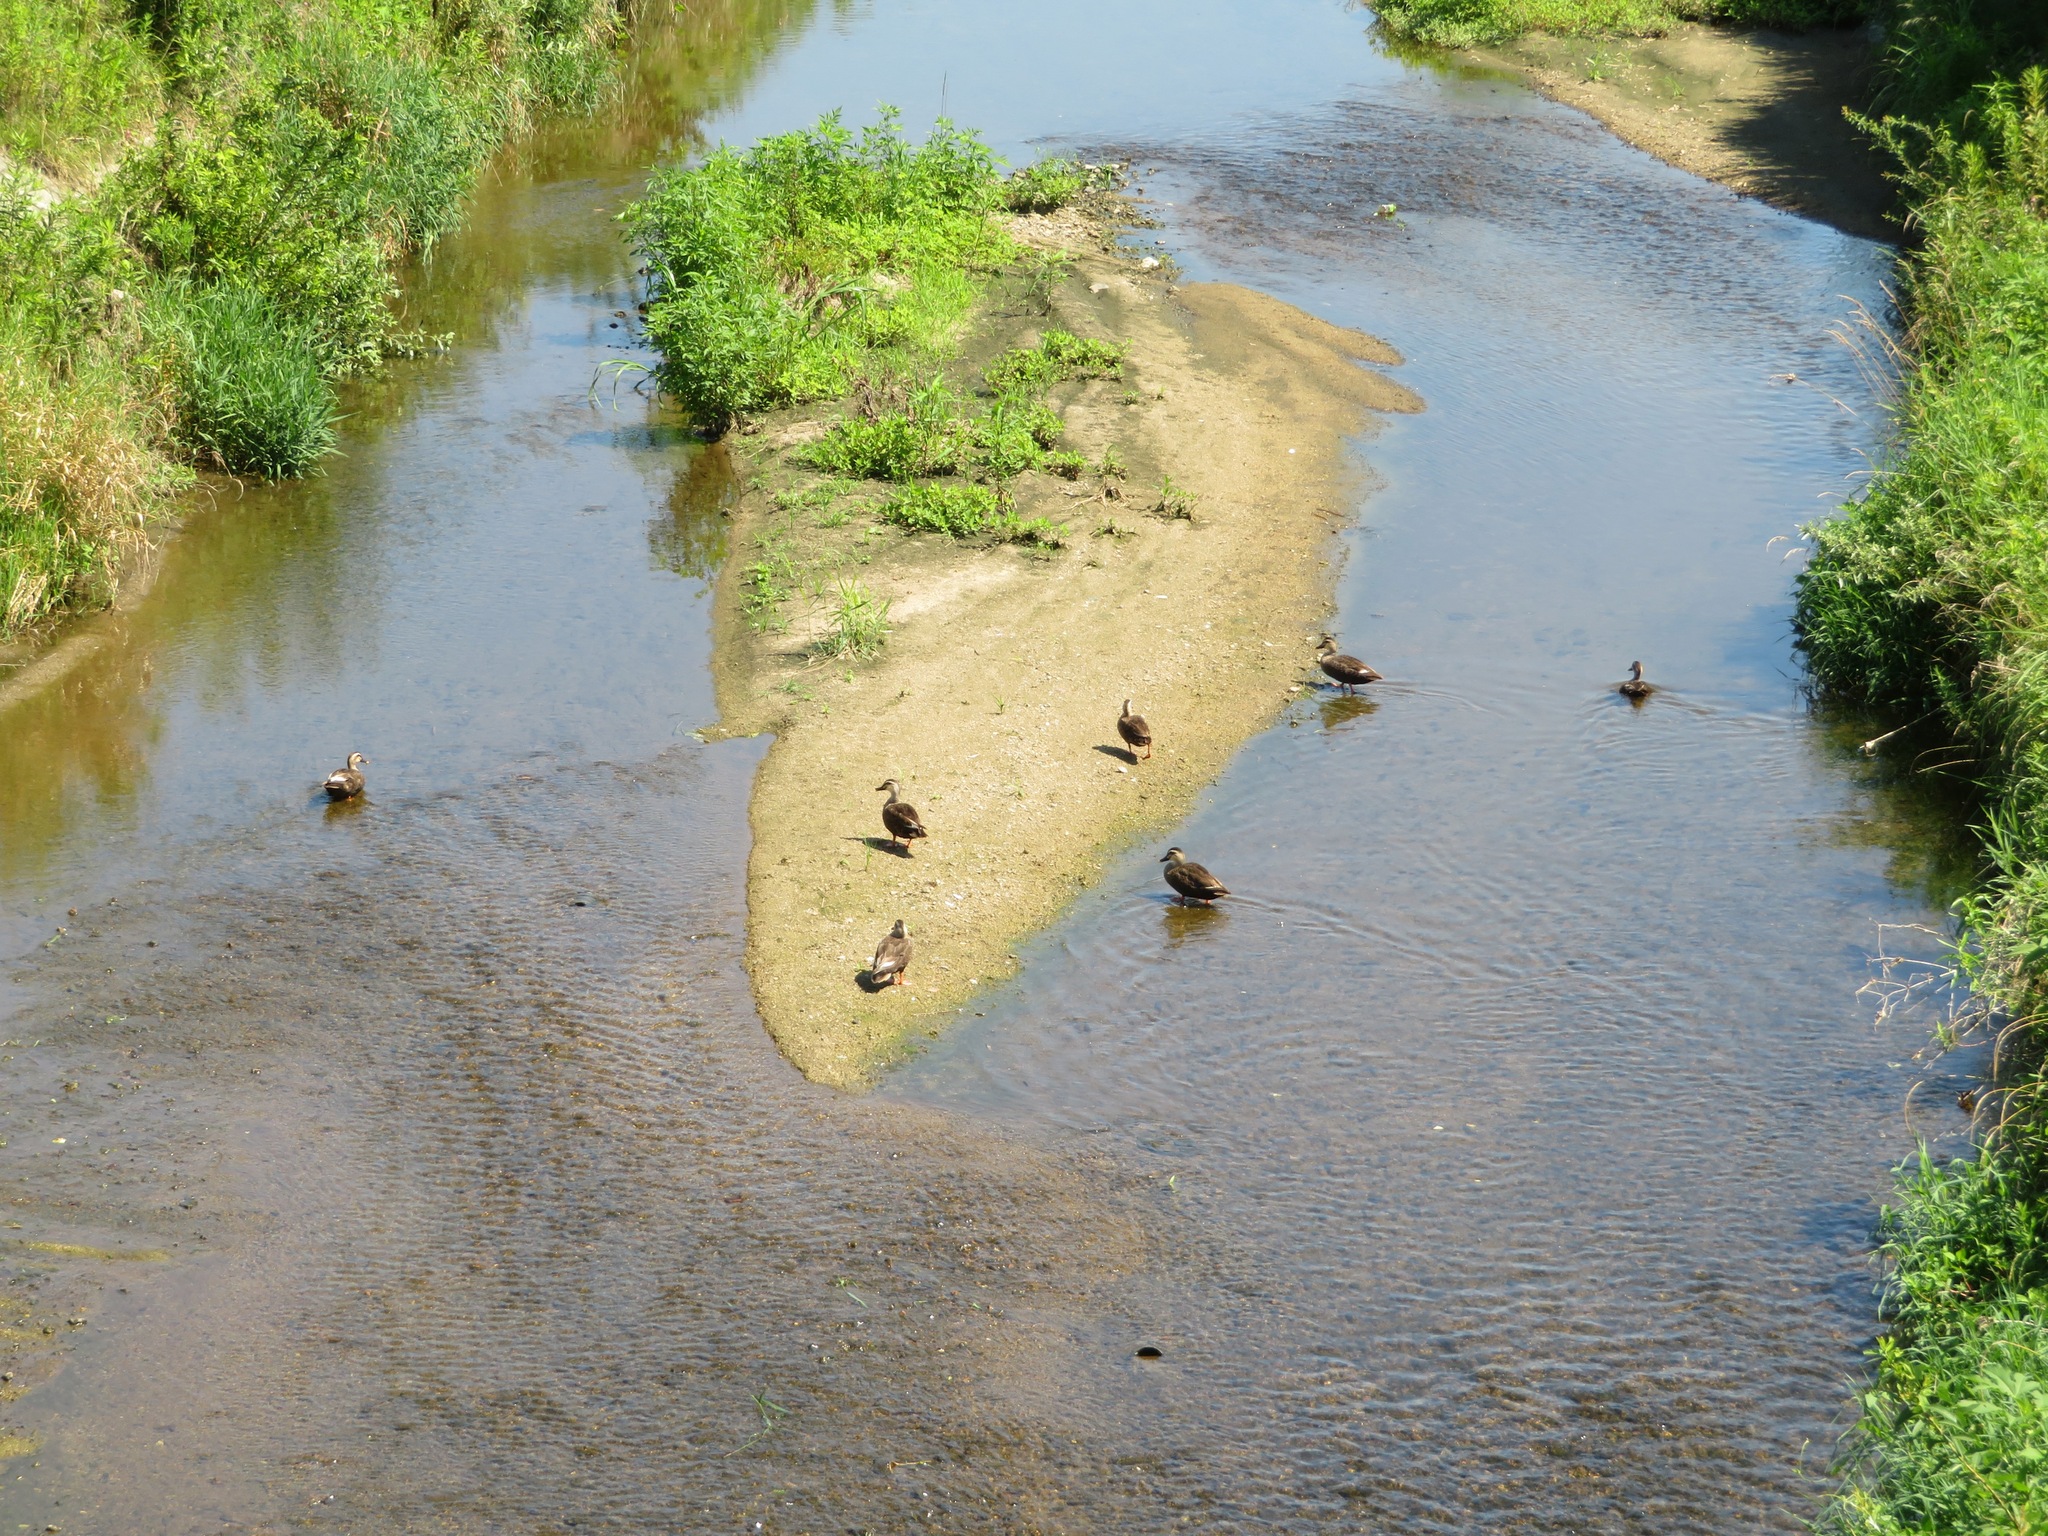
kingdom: Animalia
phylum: Chordata
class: Aves
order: Anseriformes
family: Anatidae
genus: Anas
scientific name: Anas zonorhyncha
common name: Eastern spot-billed duck
